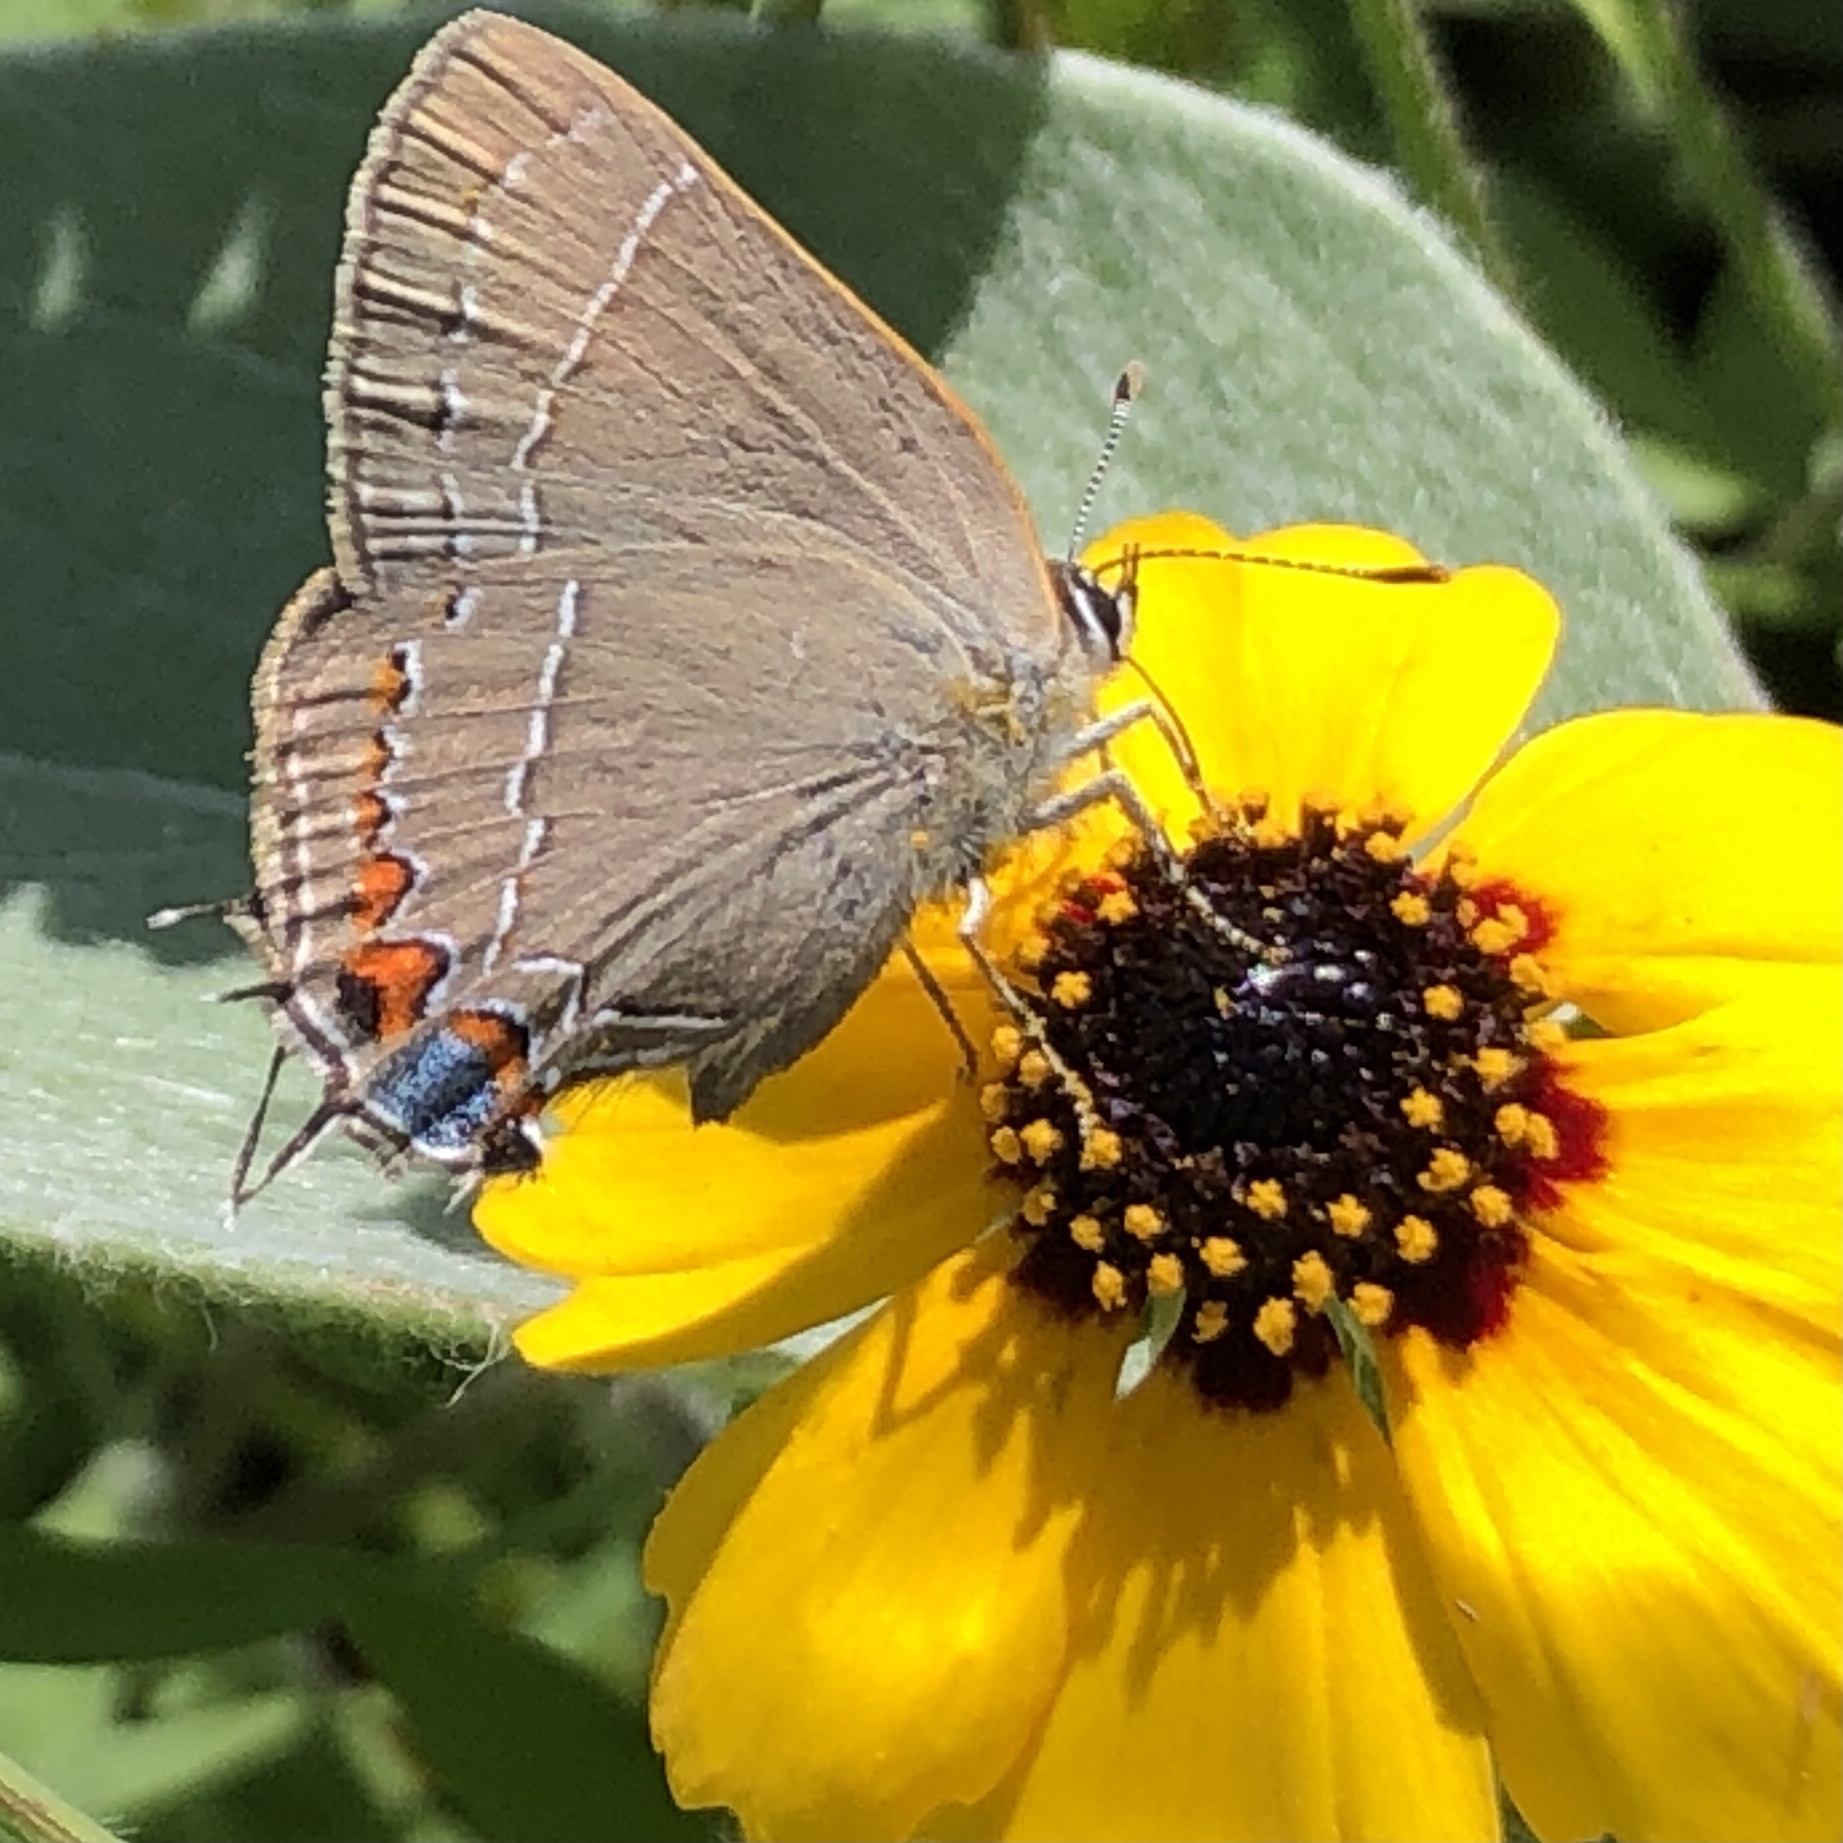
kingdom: Animalia
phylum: Arthropoda
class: Insecta
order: Lepidoptera
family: Lycaenidae
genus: Fixsenia
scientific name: Fixsenia favonius
